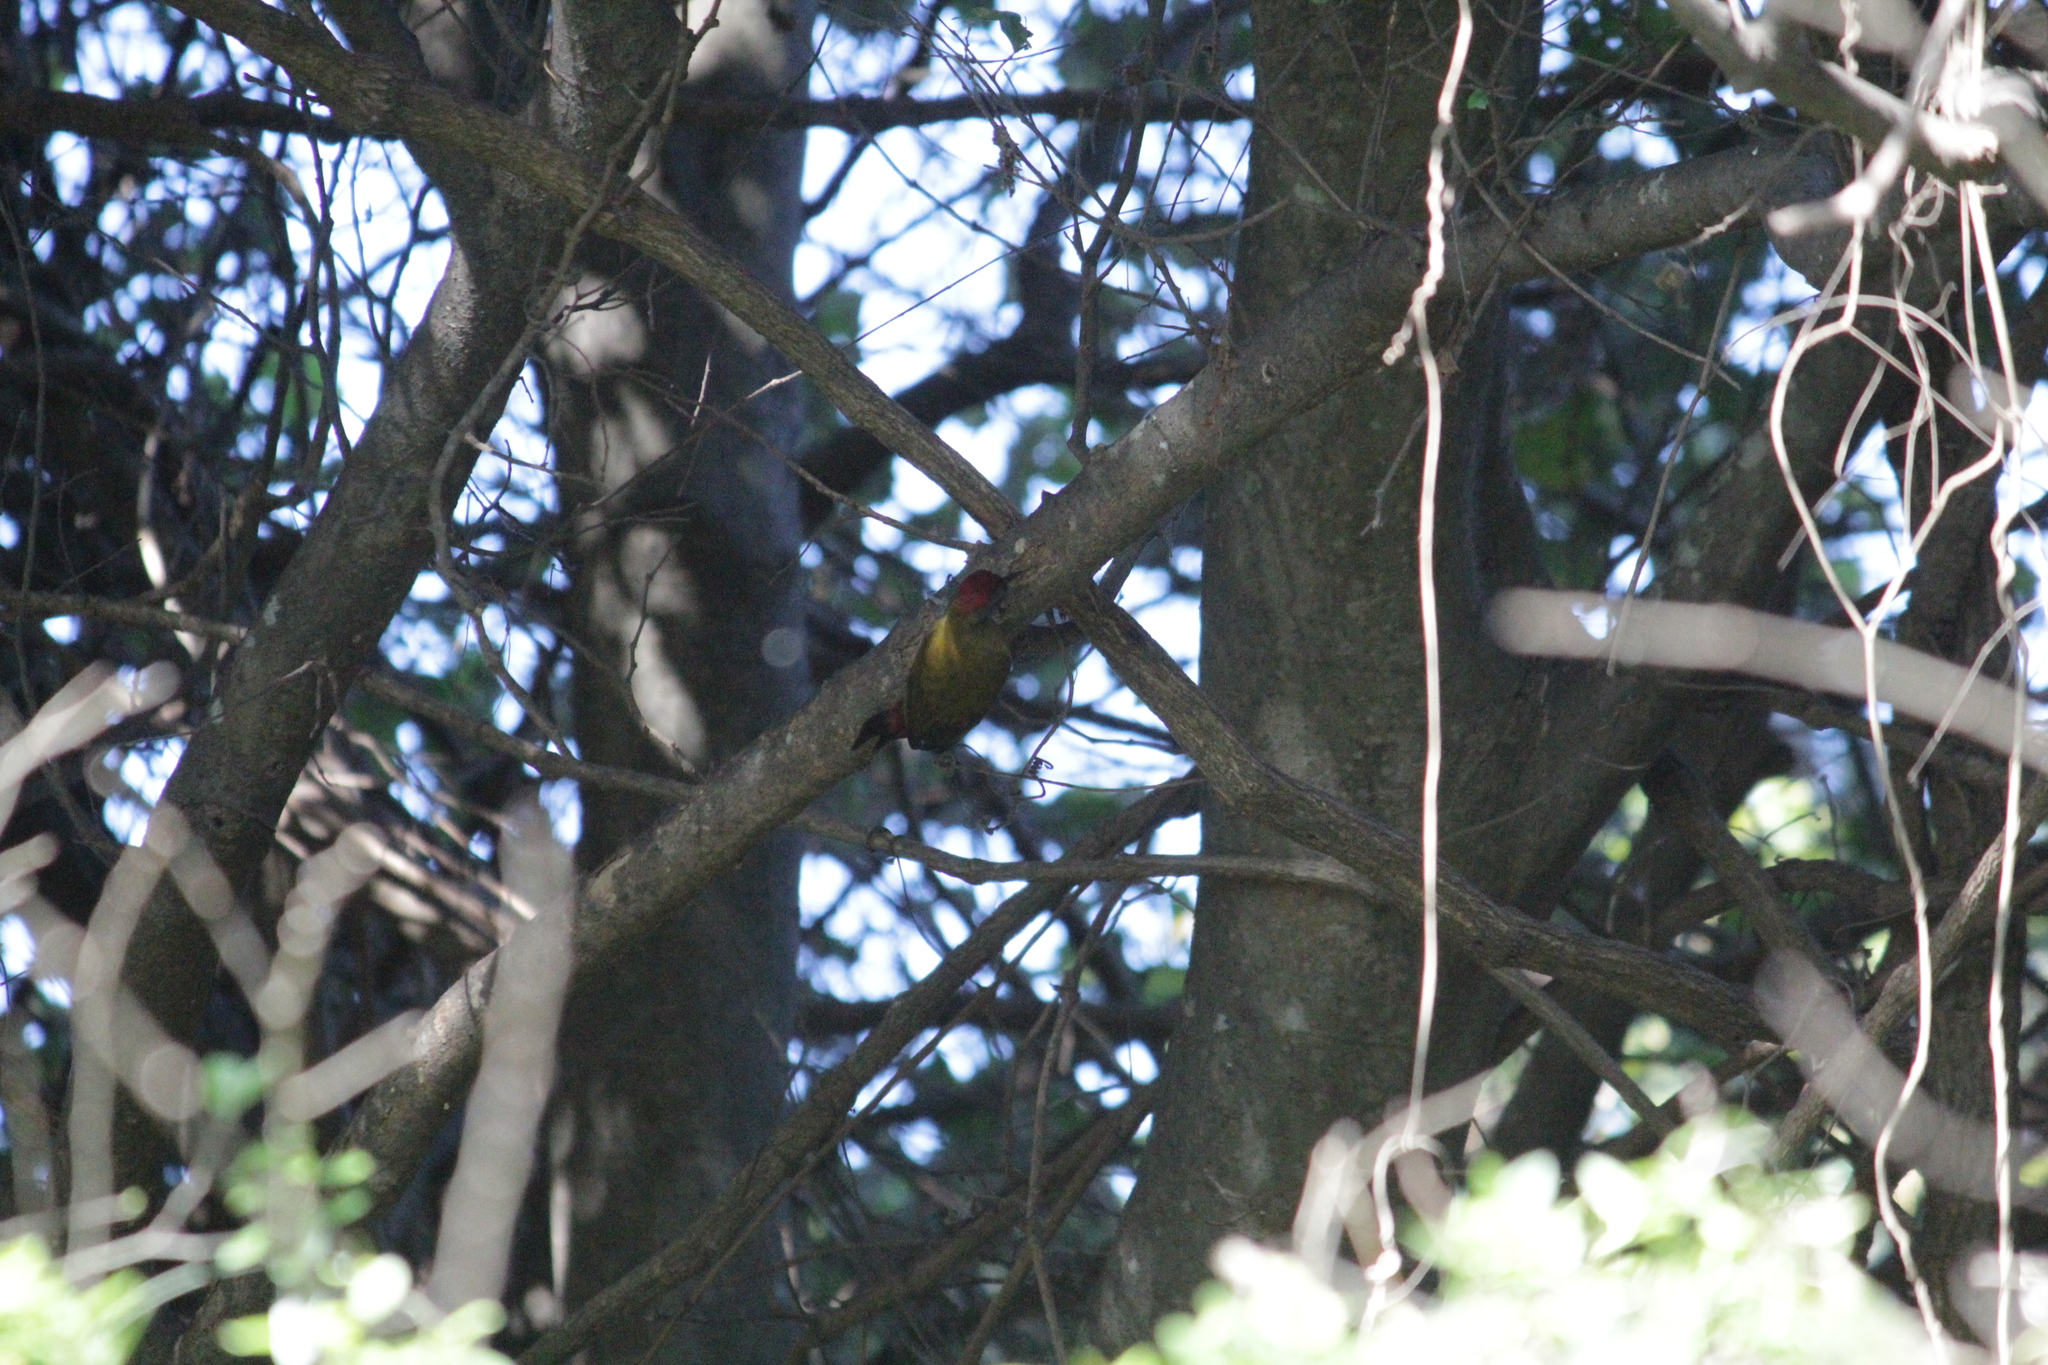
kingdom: Animalia
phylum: Chordata
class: Aves
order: Piciformes
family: Picidae
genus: Dendropicos
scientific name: Dendropicos griseocephalus
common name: Olive woodpecker
